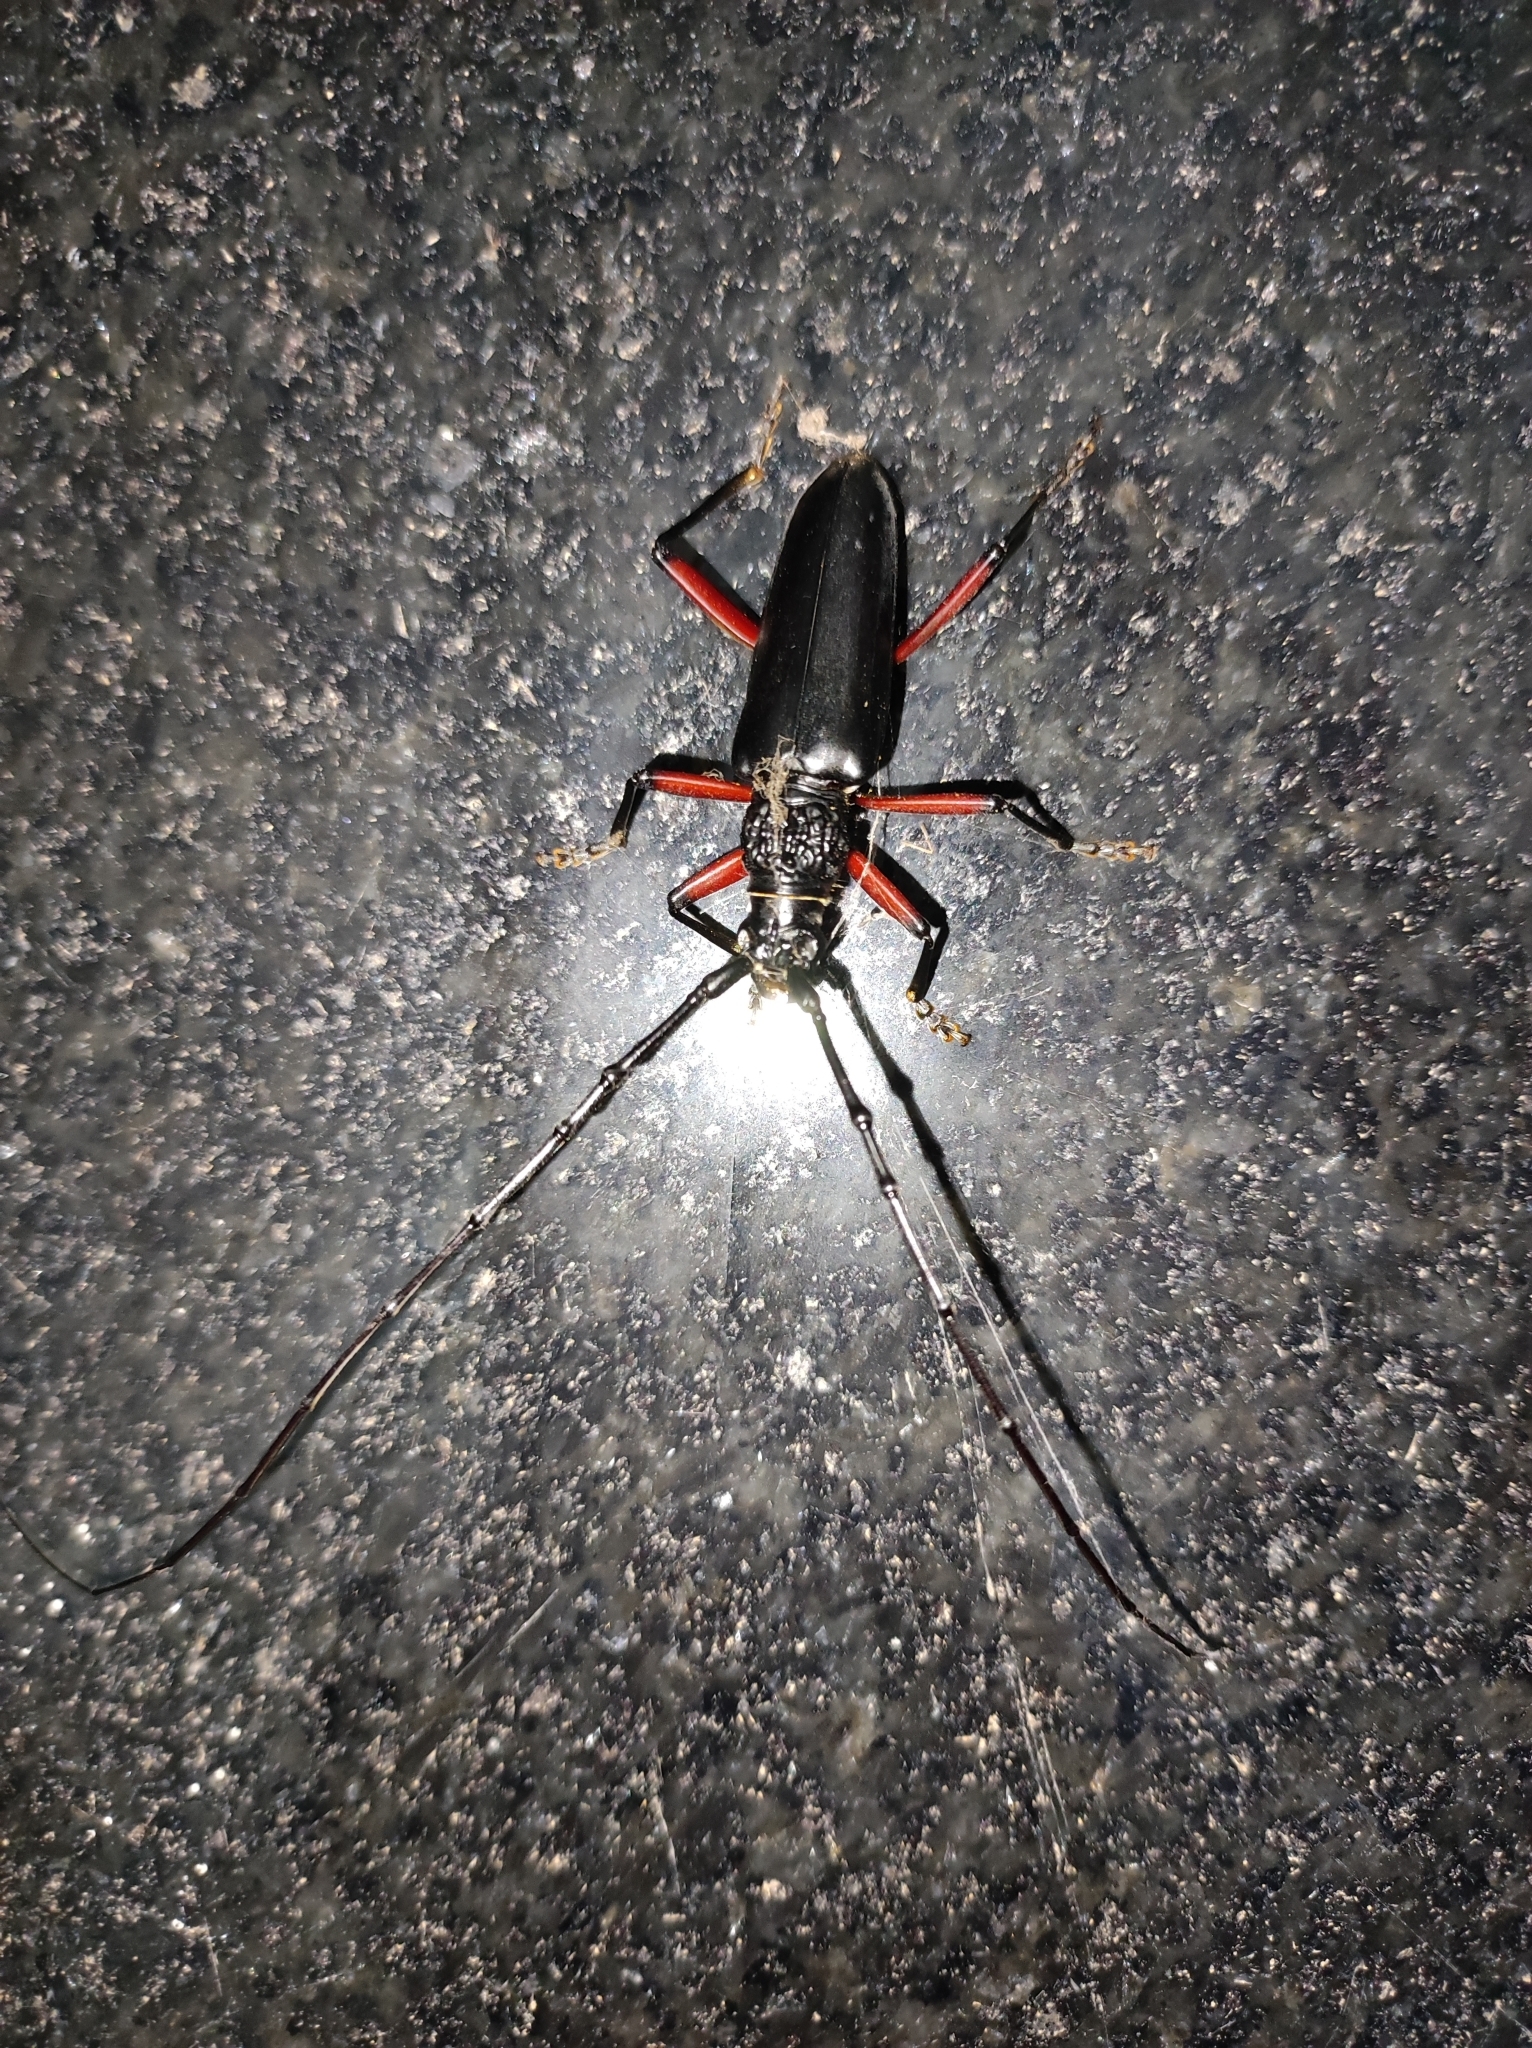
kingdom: Animalia
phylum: Arthropoda
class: Insecta
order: Coleoptera
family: Cerambycidae
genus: Pseudopachydissus
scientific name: Pseudopachydissus rufofemoralis
